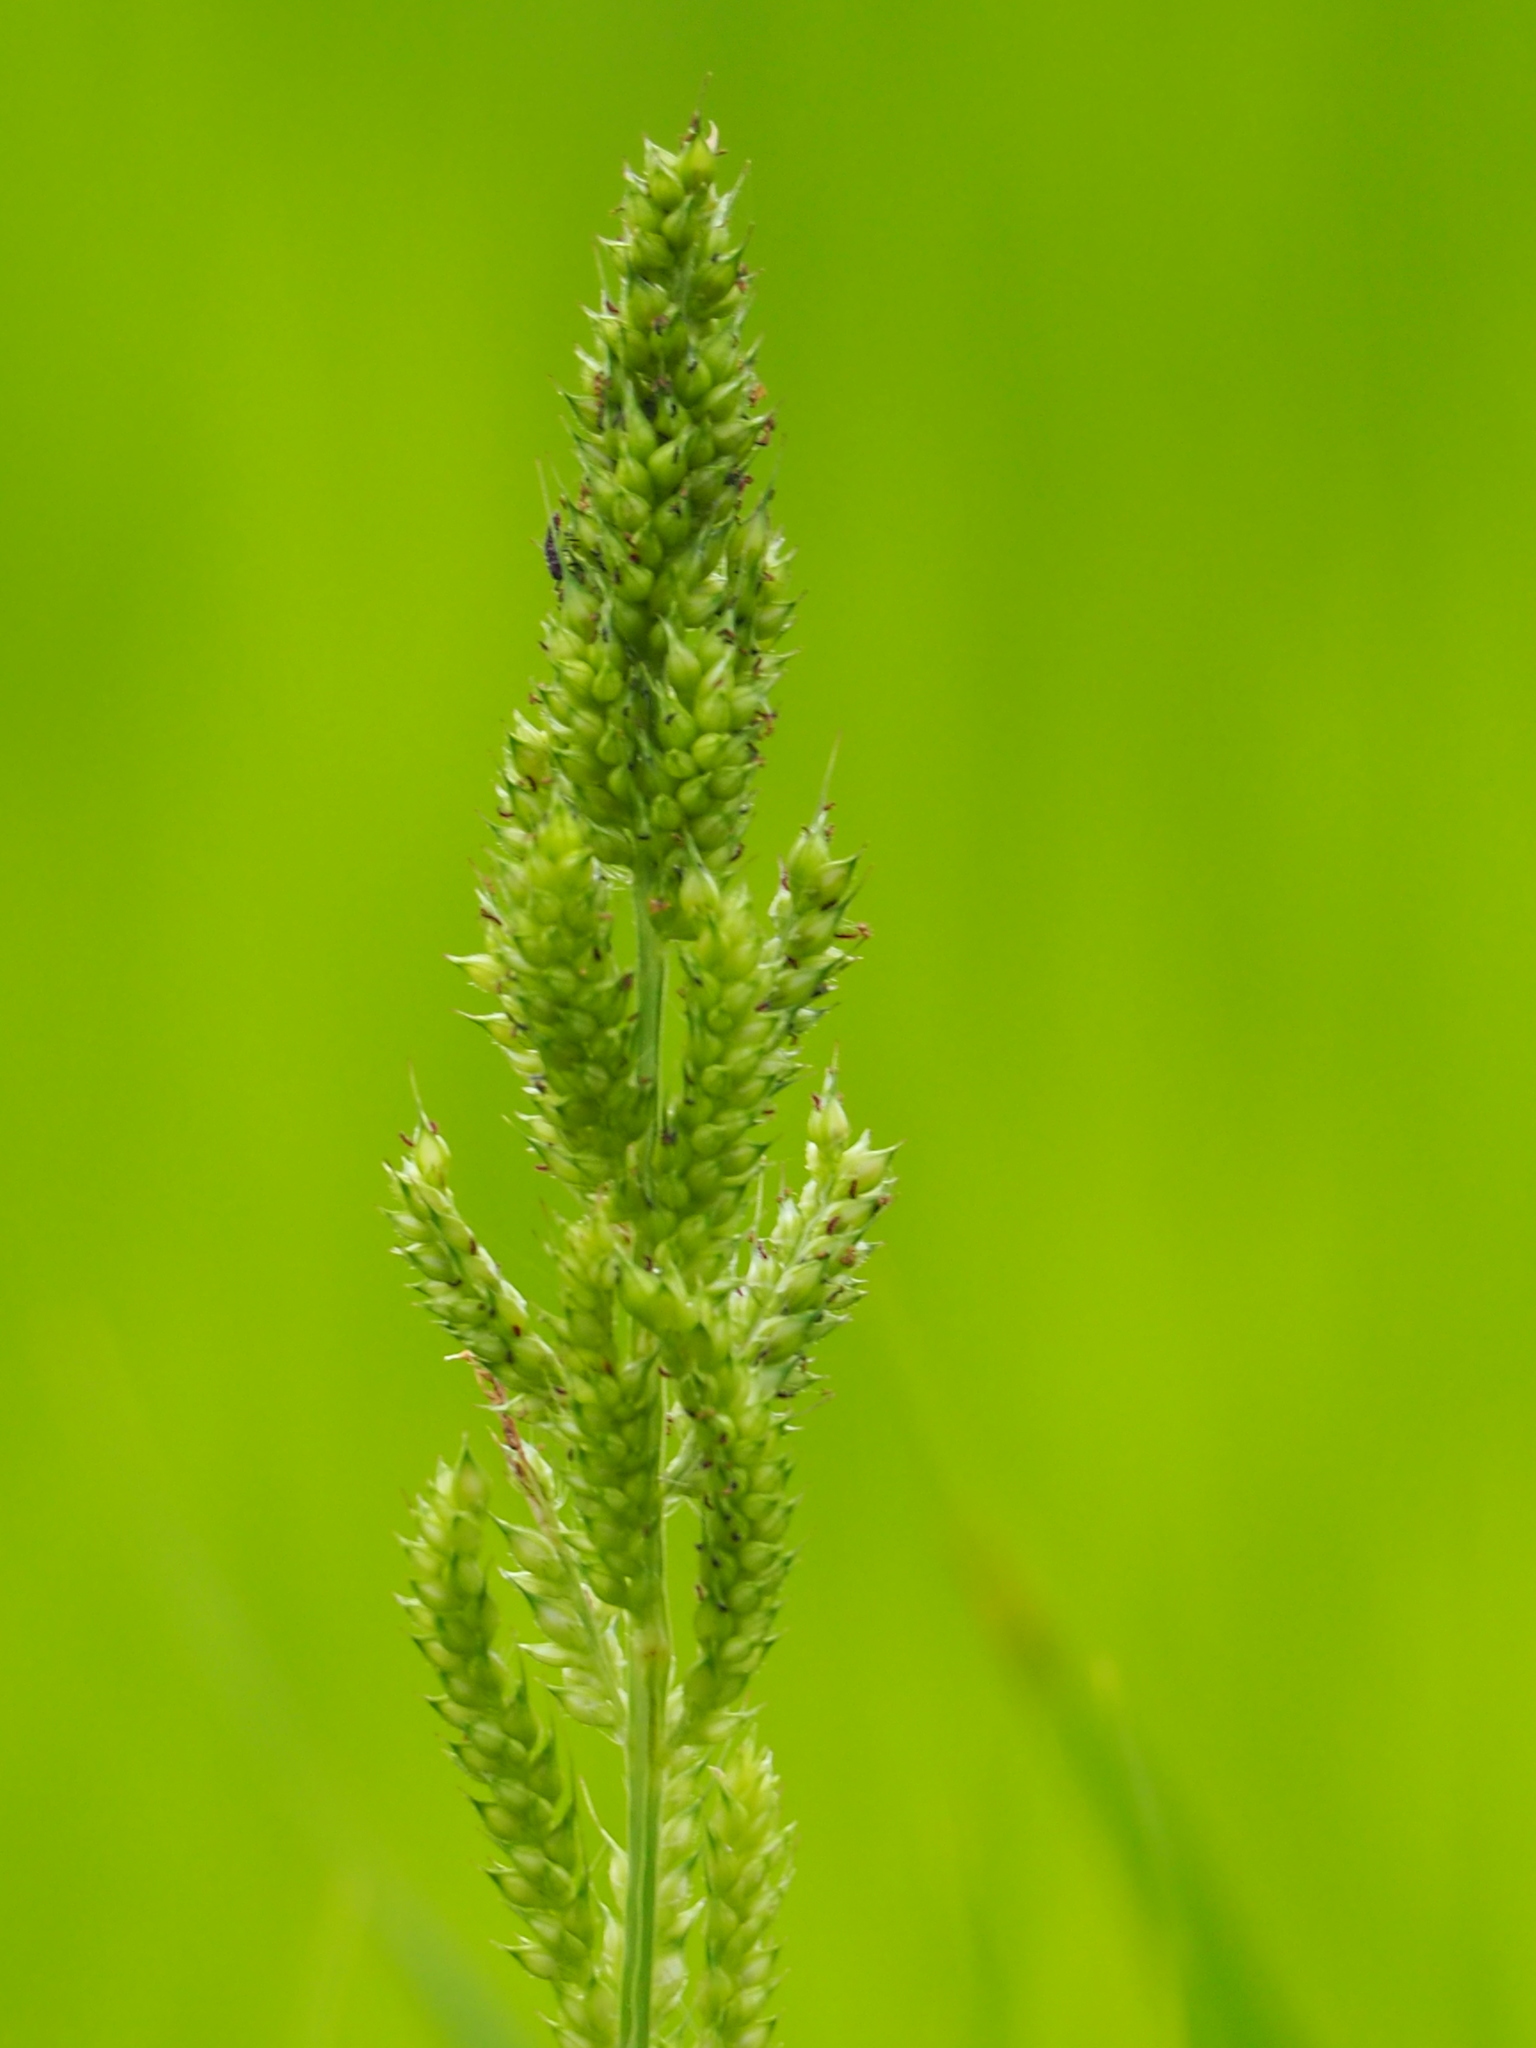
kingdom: Plantae
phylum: Tracheophyta
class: Liliopsida
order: Poales
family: Poaceae
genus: Echinochloa
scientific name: Echinochloa colonum
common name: Jungle rice
